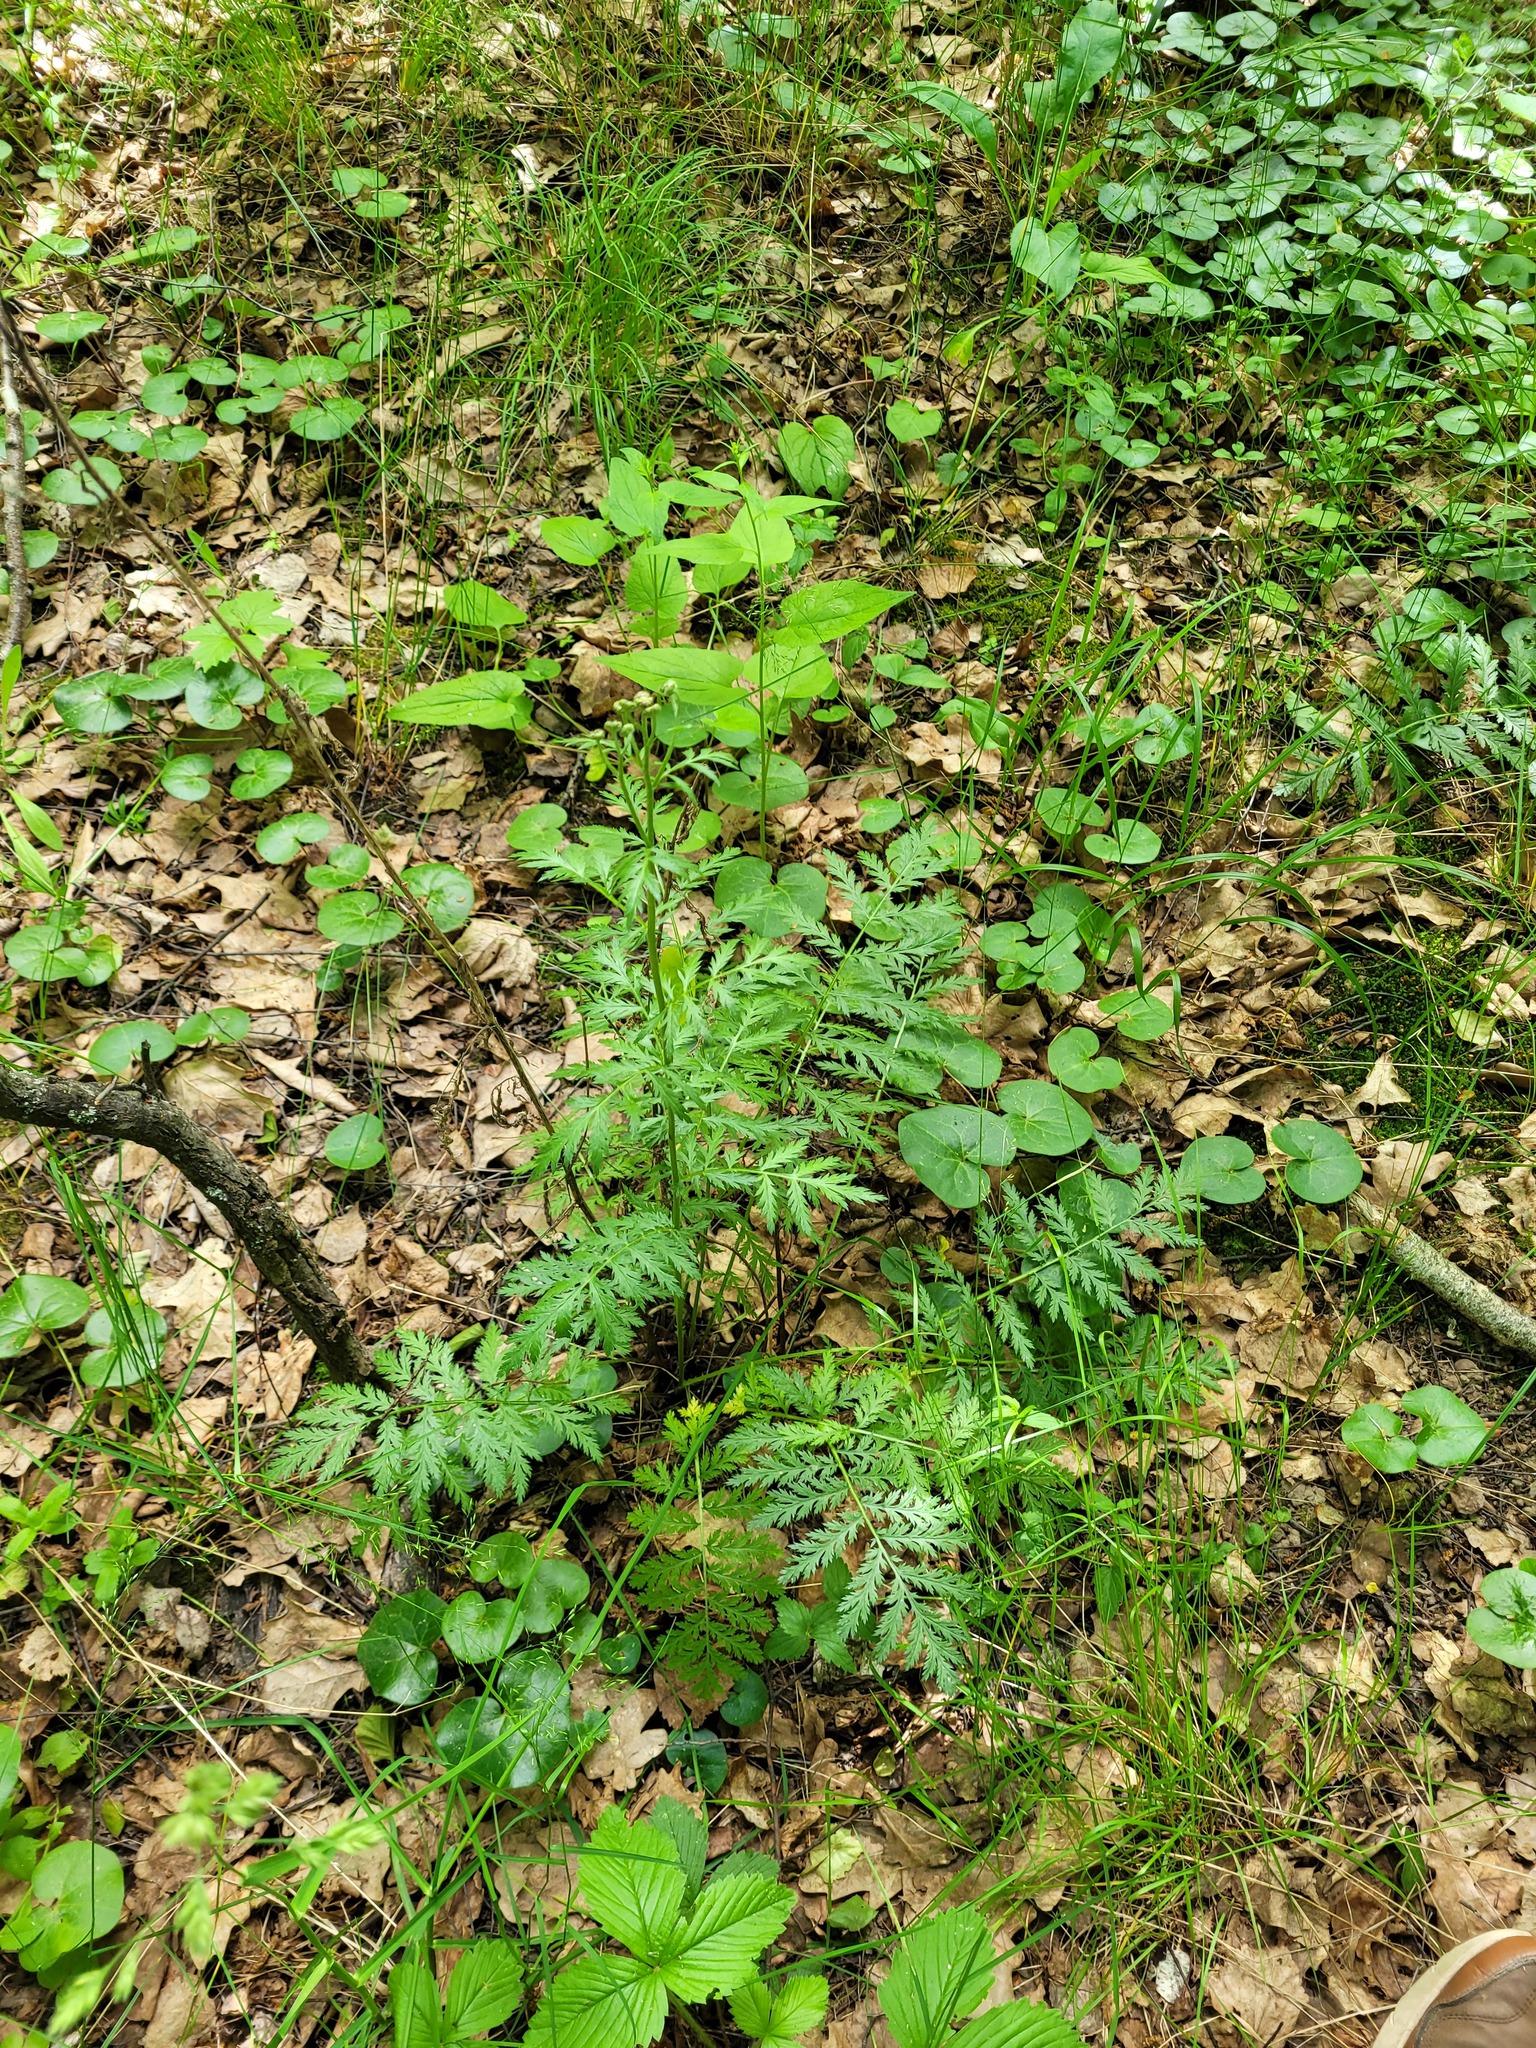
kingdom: Plantae
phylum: Tracheophyta
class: Magnoliopsida
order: Asterales
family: Asteraceae
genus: Tanacetum
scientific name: Tanacetum corymbosum
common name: Scentless feverfew
